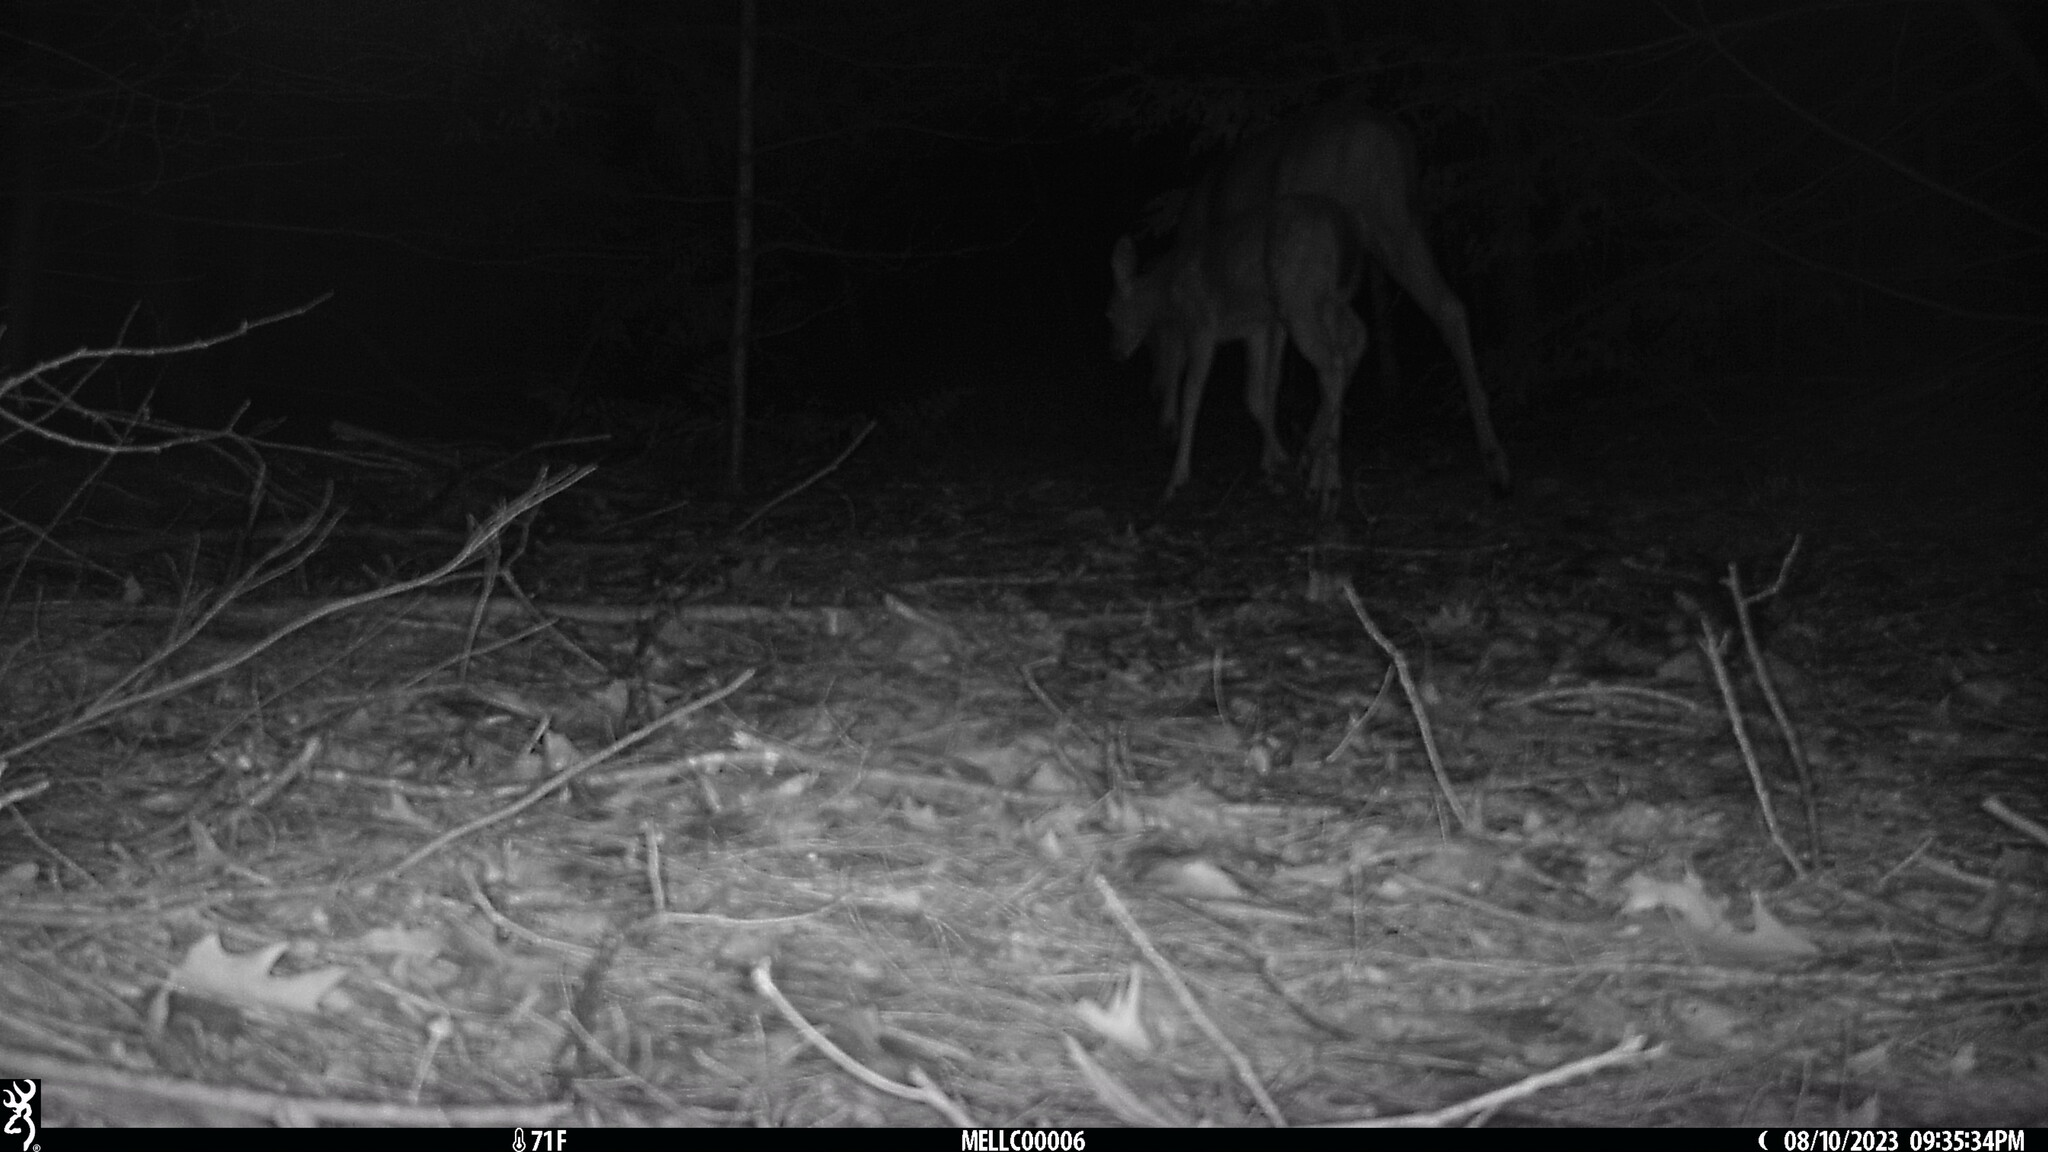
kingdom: Animalia
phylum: Chordata
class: Mammalia
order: Artiodactyla
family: Cervidae
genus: Odocoileus
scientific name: Odocoileus virginianus
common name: White-tailed deer
